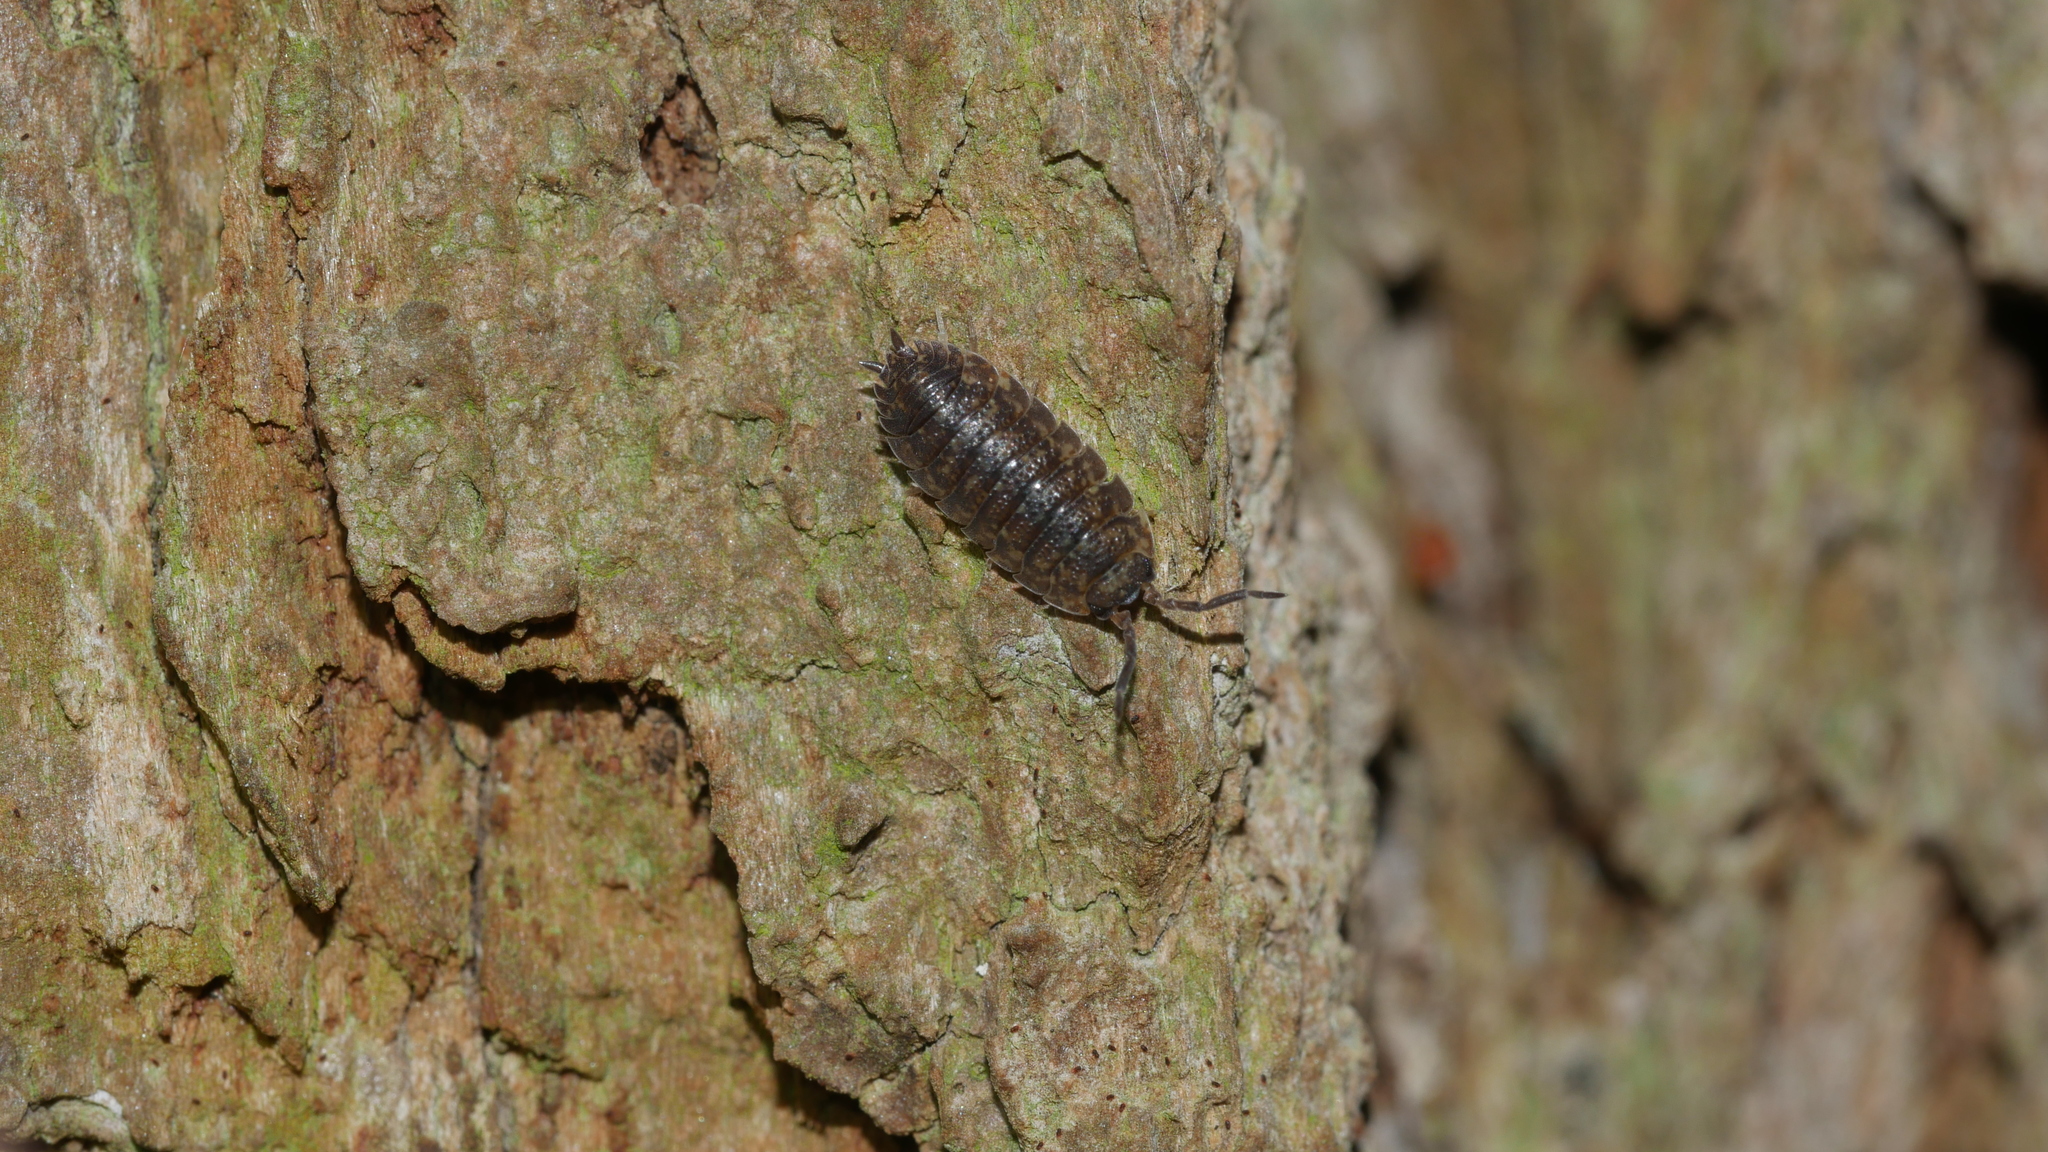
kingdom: Animalia
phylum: Arthropoda
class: Malacostraca
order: Isopoda
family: Porcellionidae
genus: Porcellio
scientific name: Porcellio scaber
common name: Common rough woodlouse
